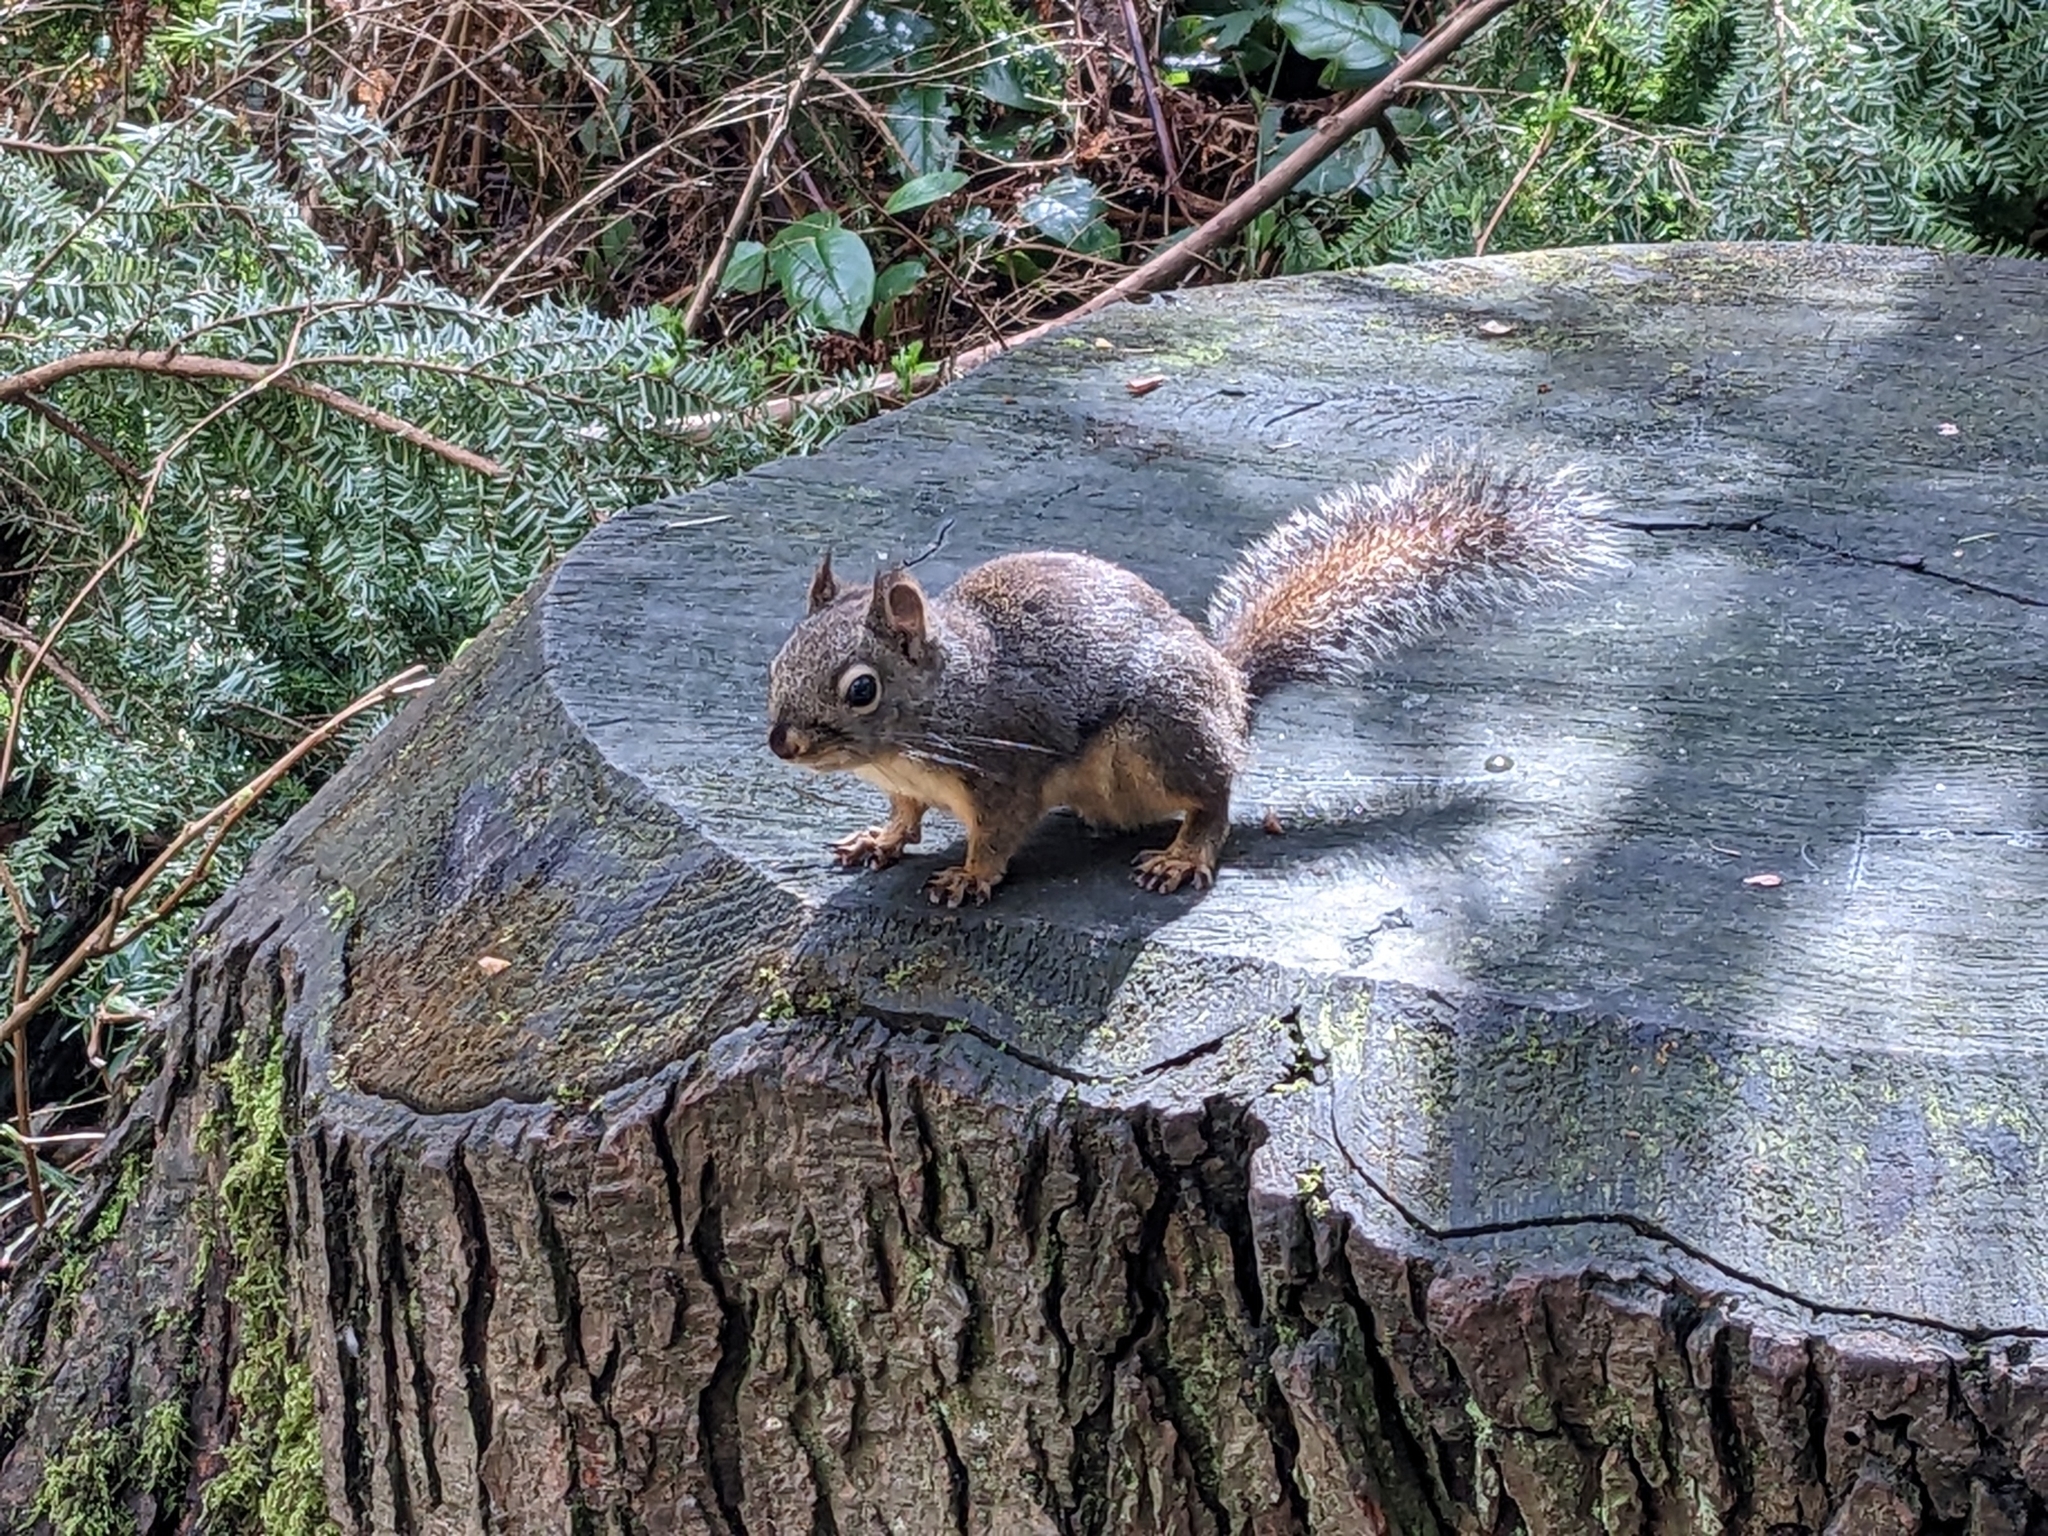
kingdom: Animalia
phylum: Chordata
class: Mammalia
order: Rodentia
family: Sciuridae
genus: Tamiasciurus
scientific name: Tamiasciurus douglasii
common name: Douglas's squirrel
